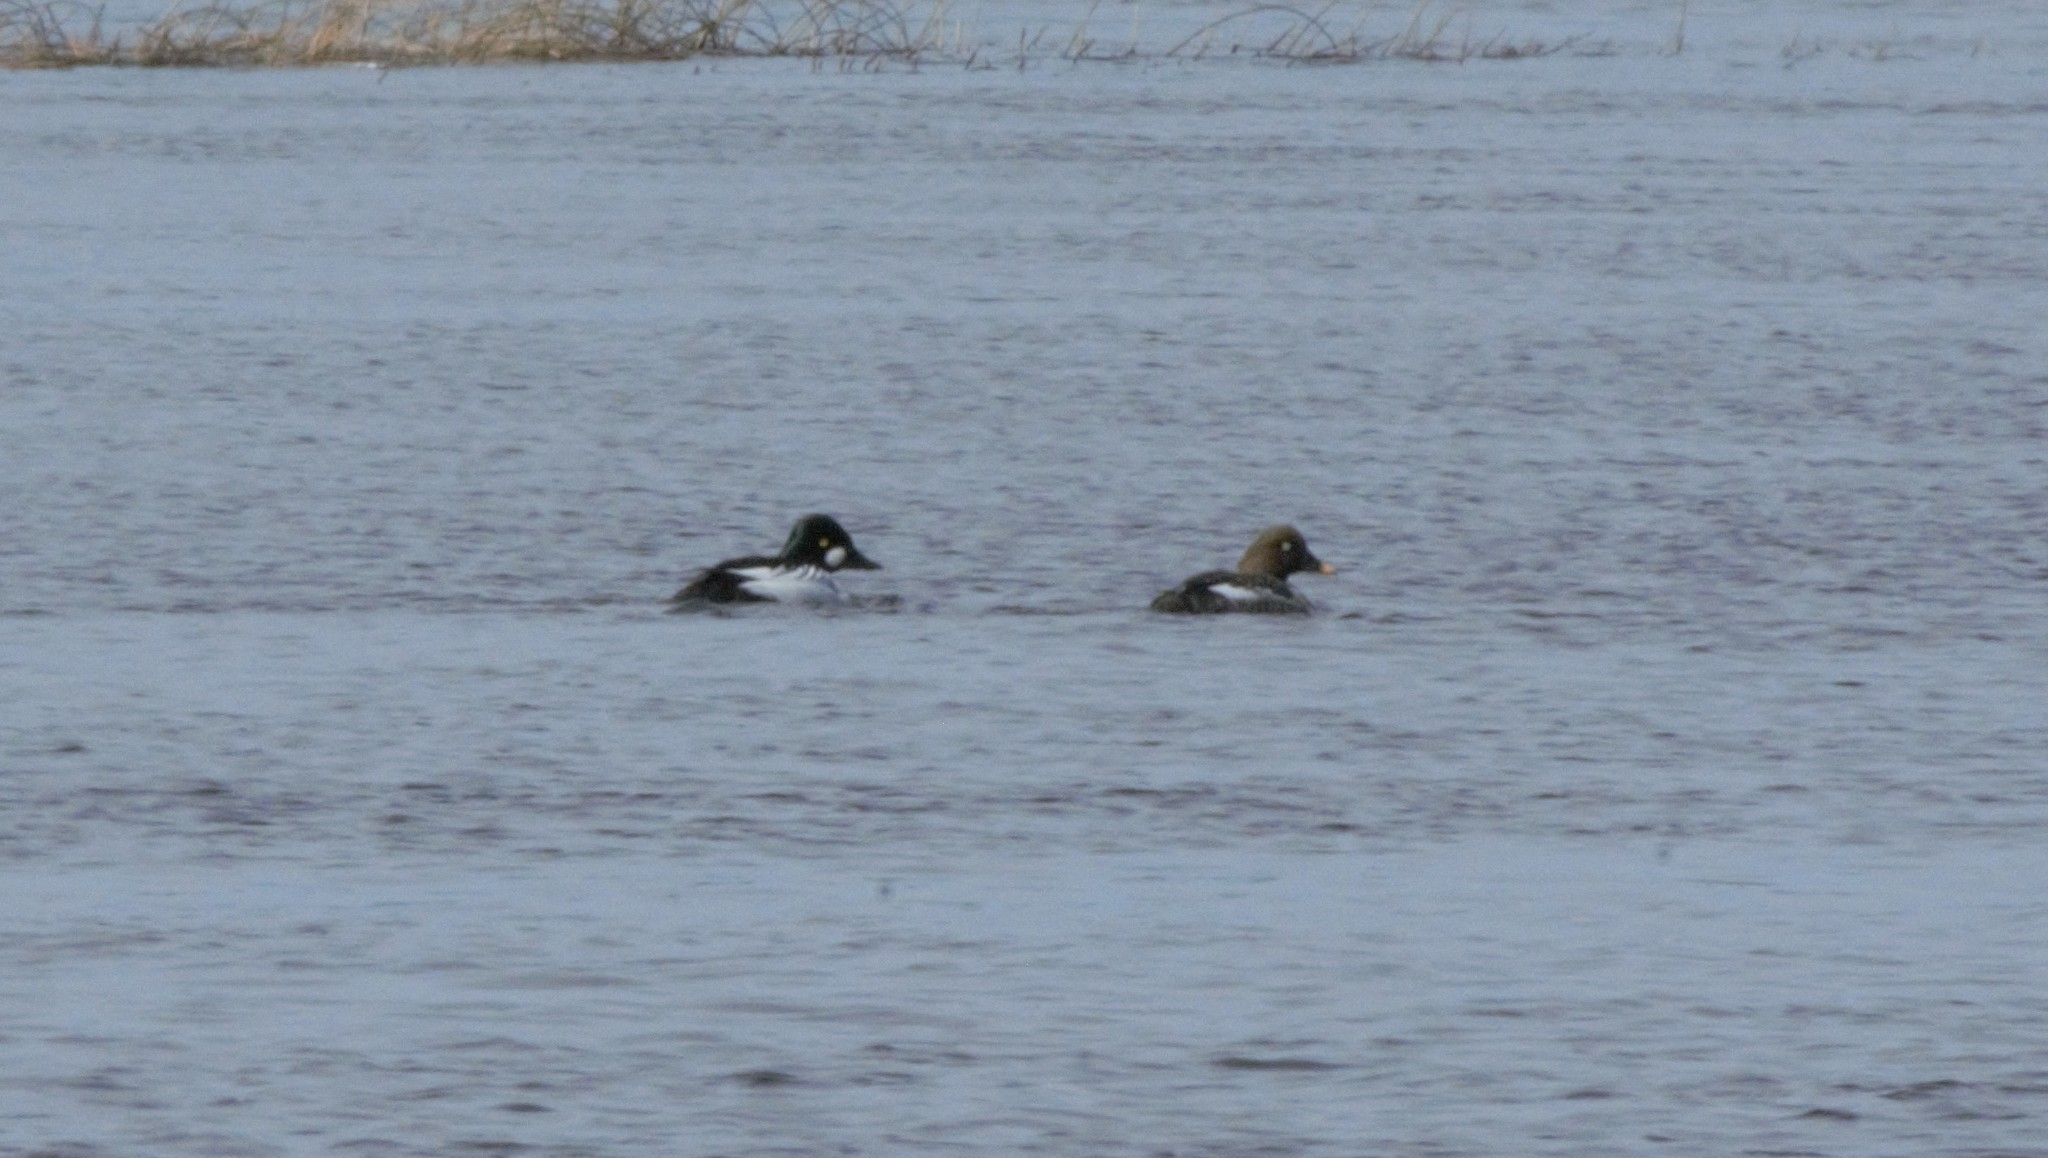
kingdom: Animalia
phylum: Chordata
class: Aves
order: Anseriformes
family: Anatidae
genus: Bucephala
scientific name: Bucephala clangula
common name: Common goldeneye
